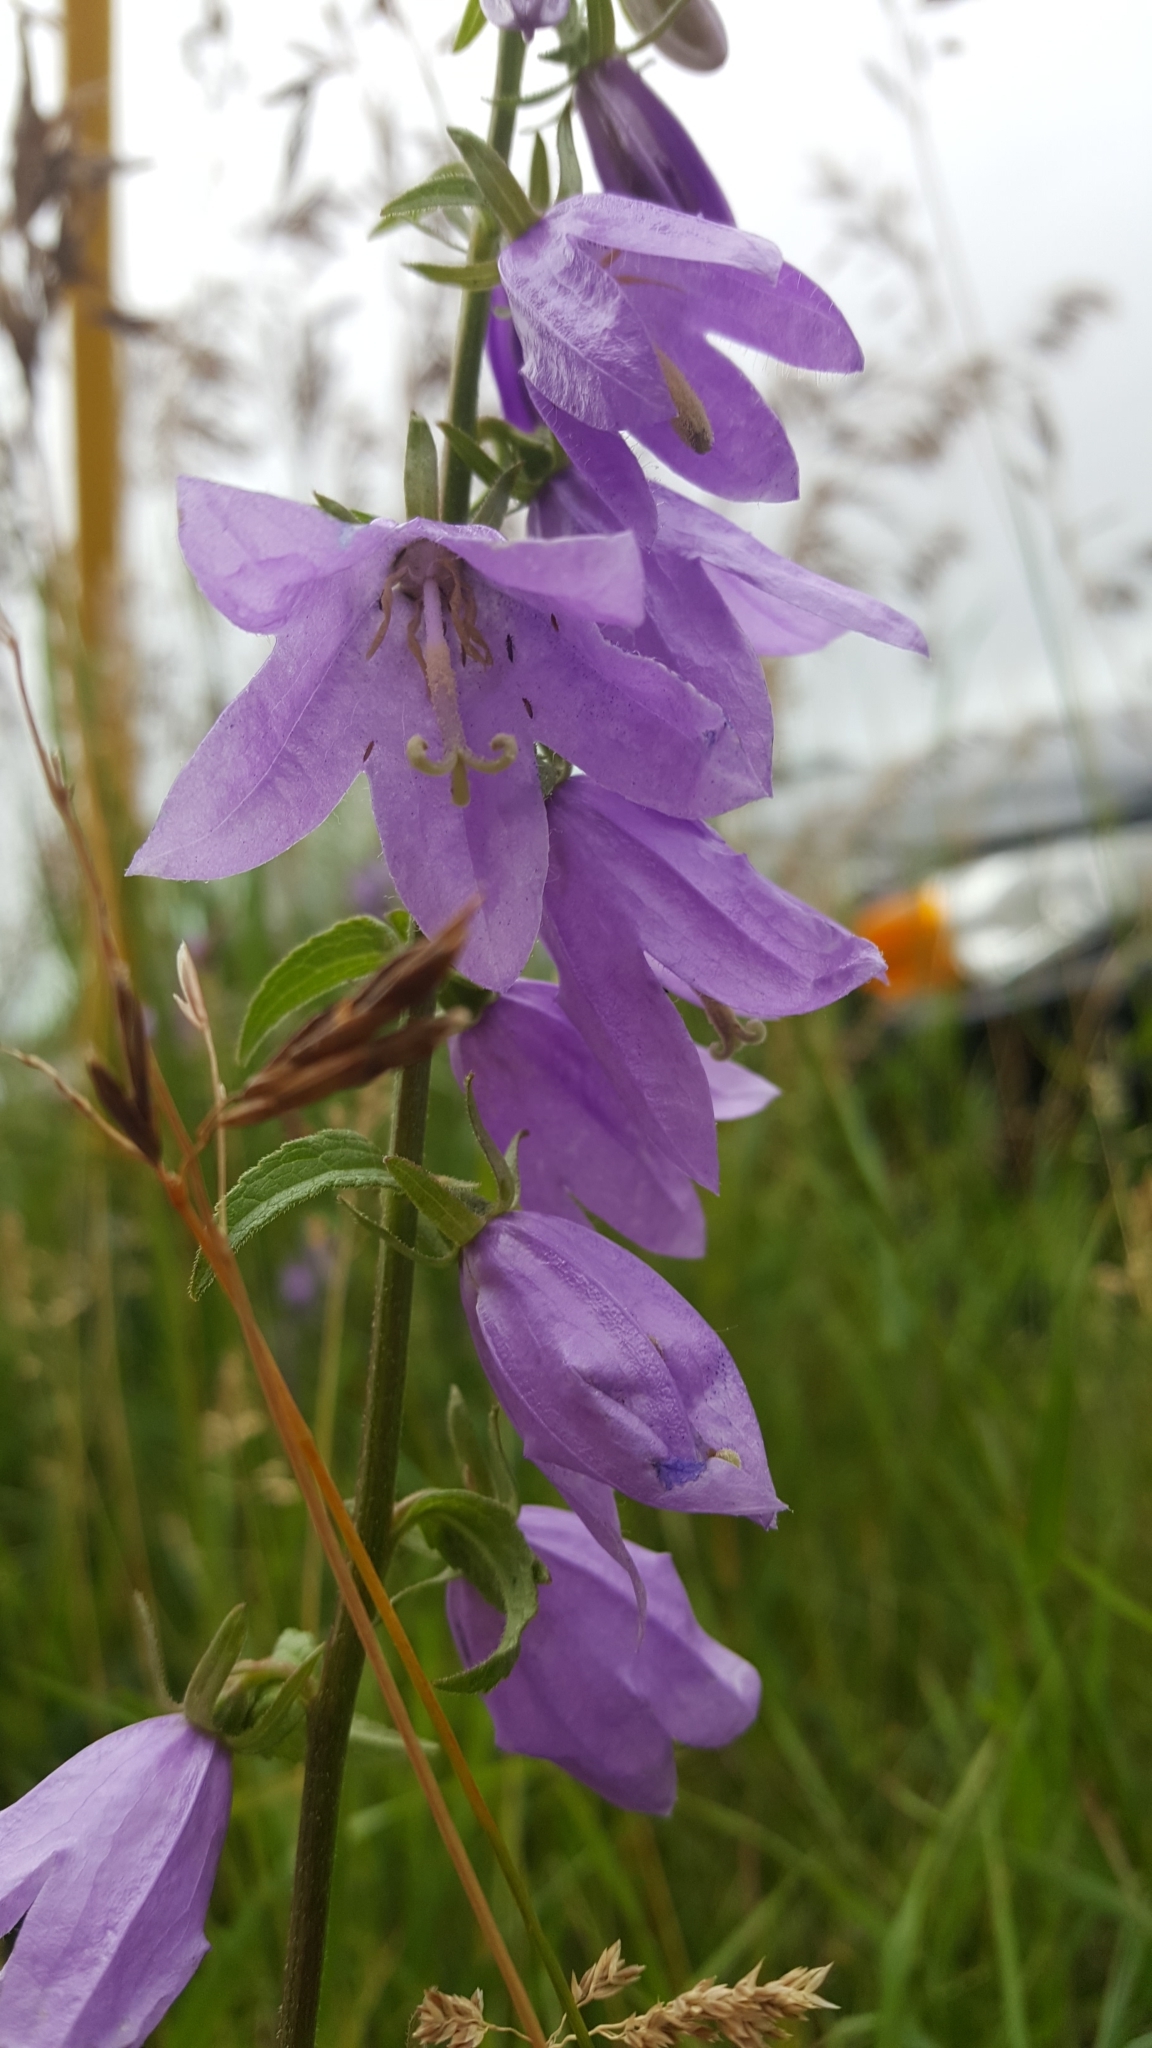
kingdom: Plantae
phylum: Tracheophyta
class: Magnoliopsida
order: Asterales
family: Campanulaceae
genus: Campanula
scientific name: Campanula rapunculoides
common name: Creeping bellflower
